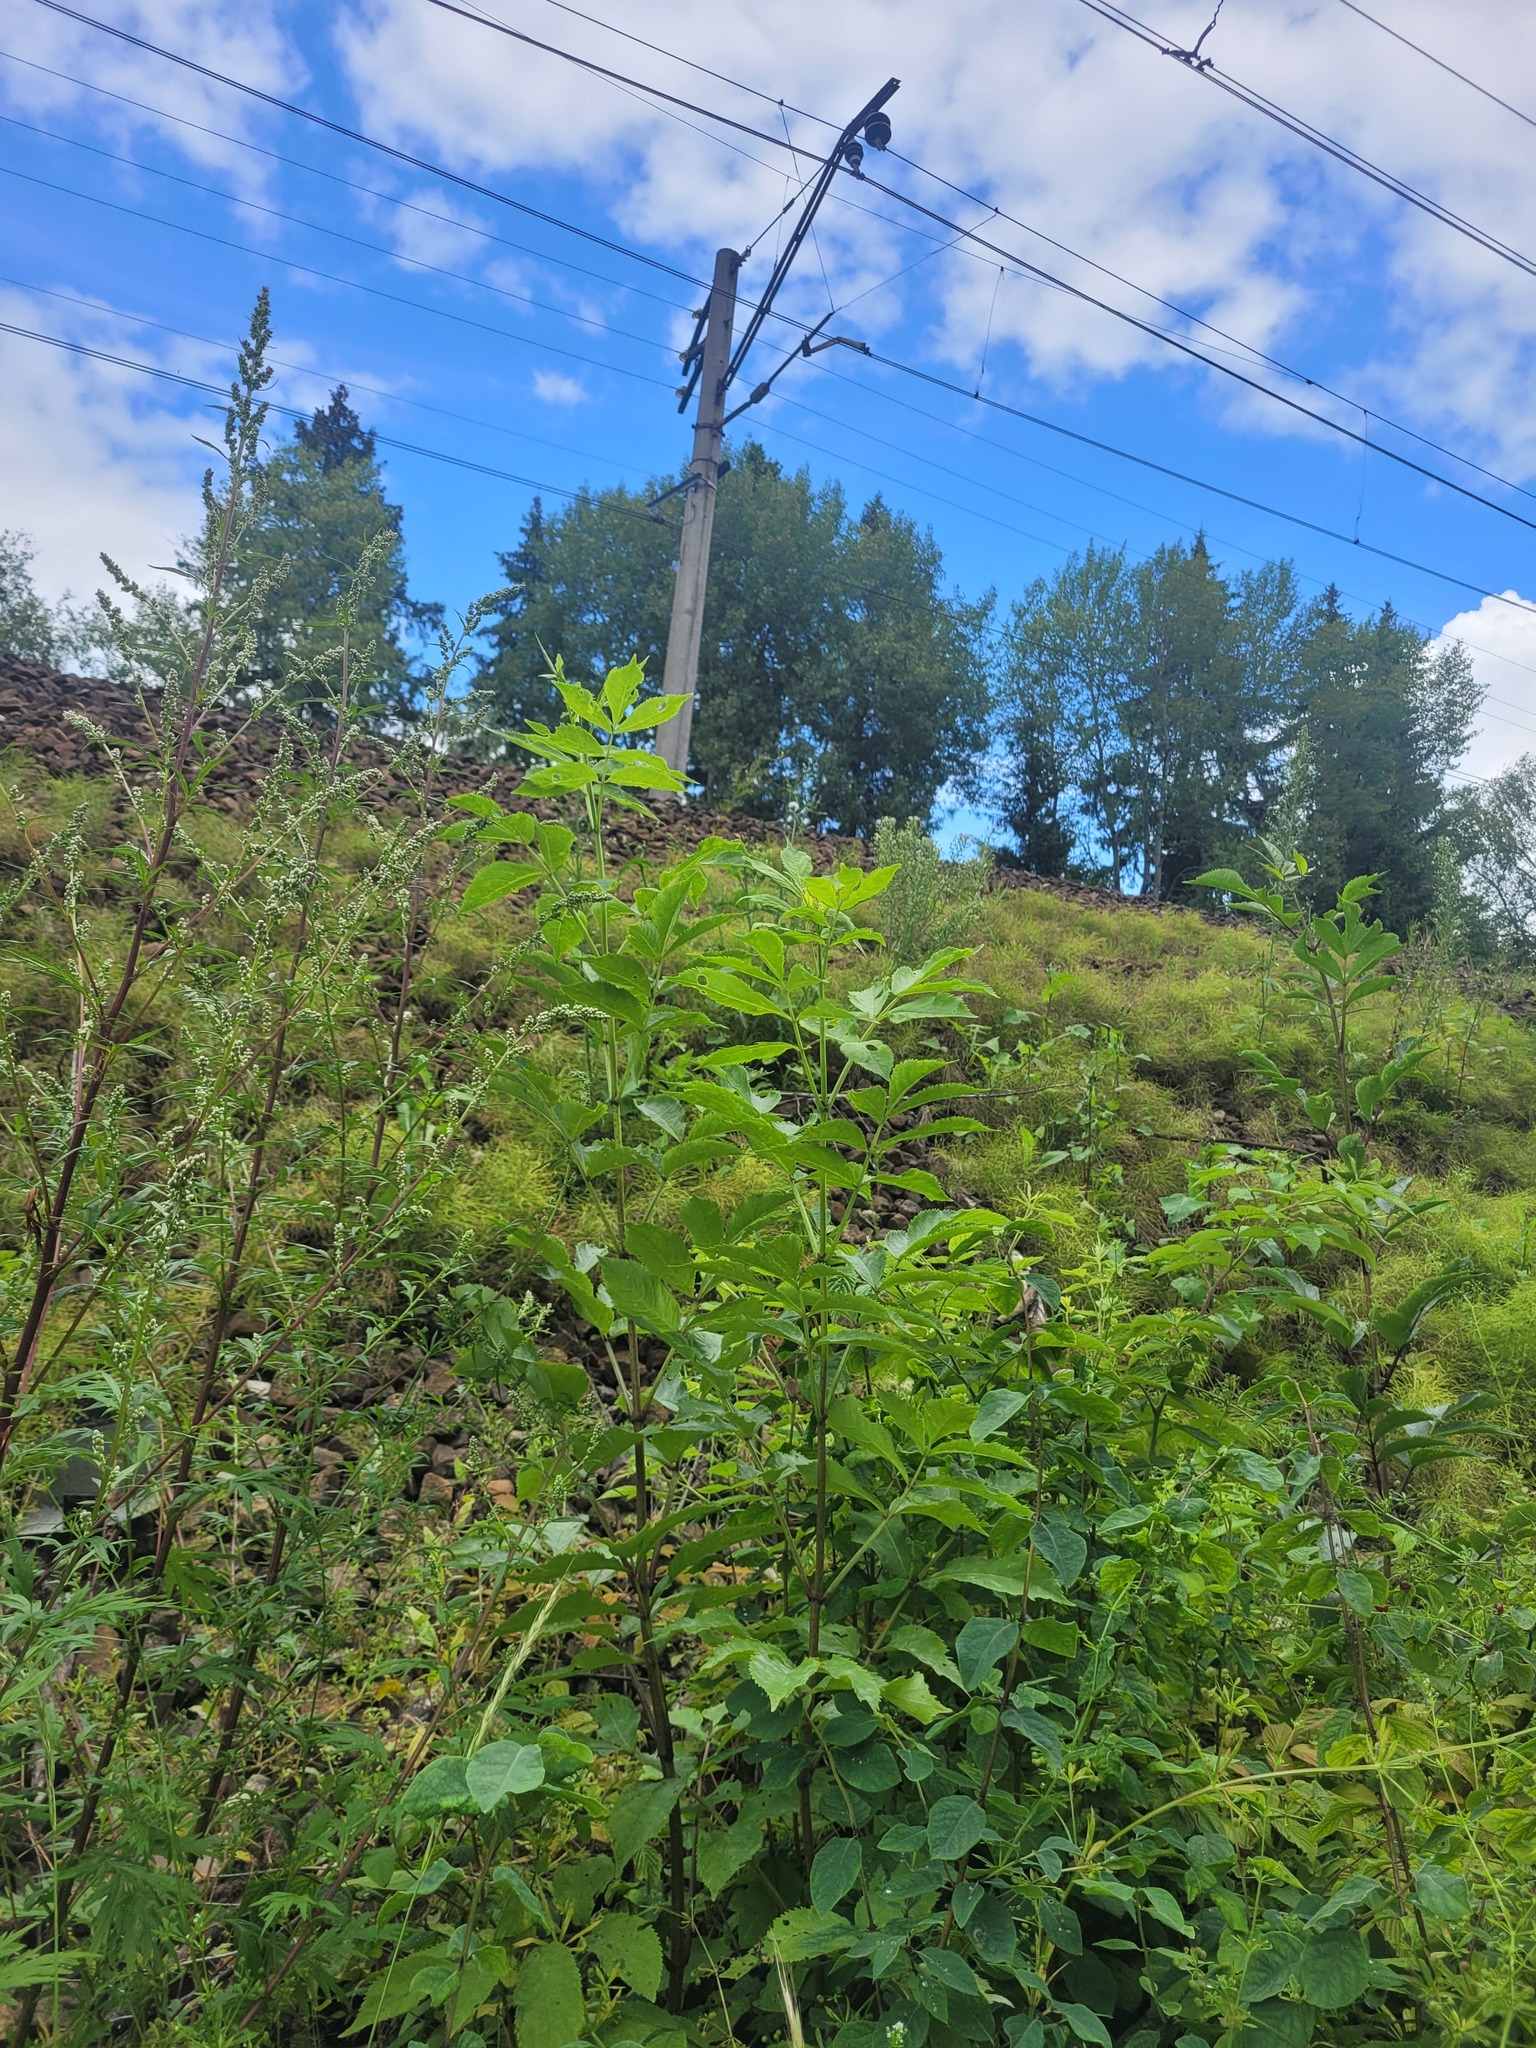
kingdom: Plantae
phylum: Tracheophyta
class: Magnoliopsida
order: Dipsacales
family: Viburnaceae
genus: Sambucus
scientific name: Sambucus racemosa
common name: Red-berried elder
